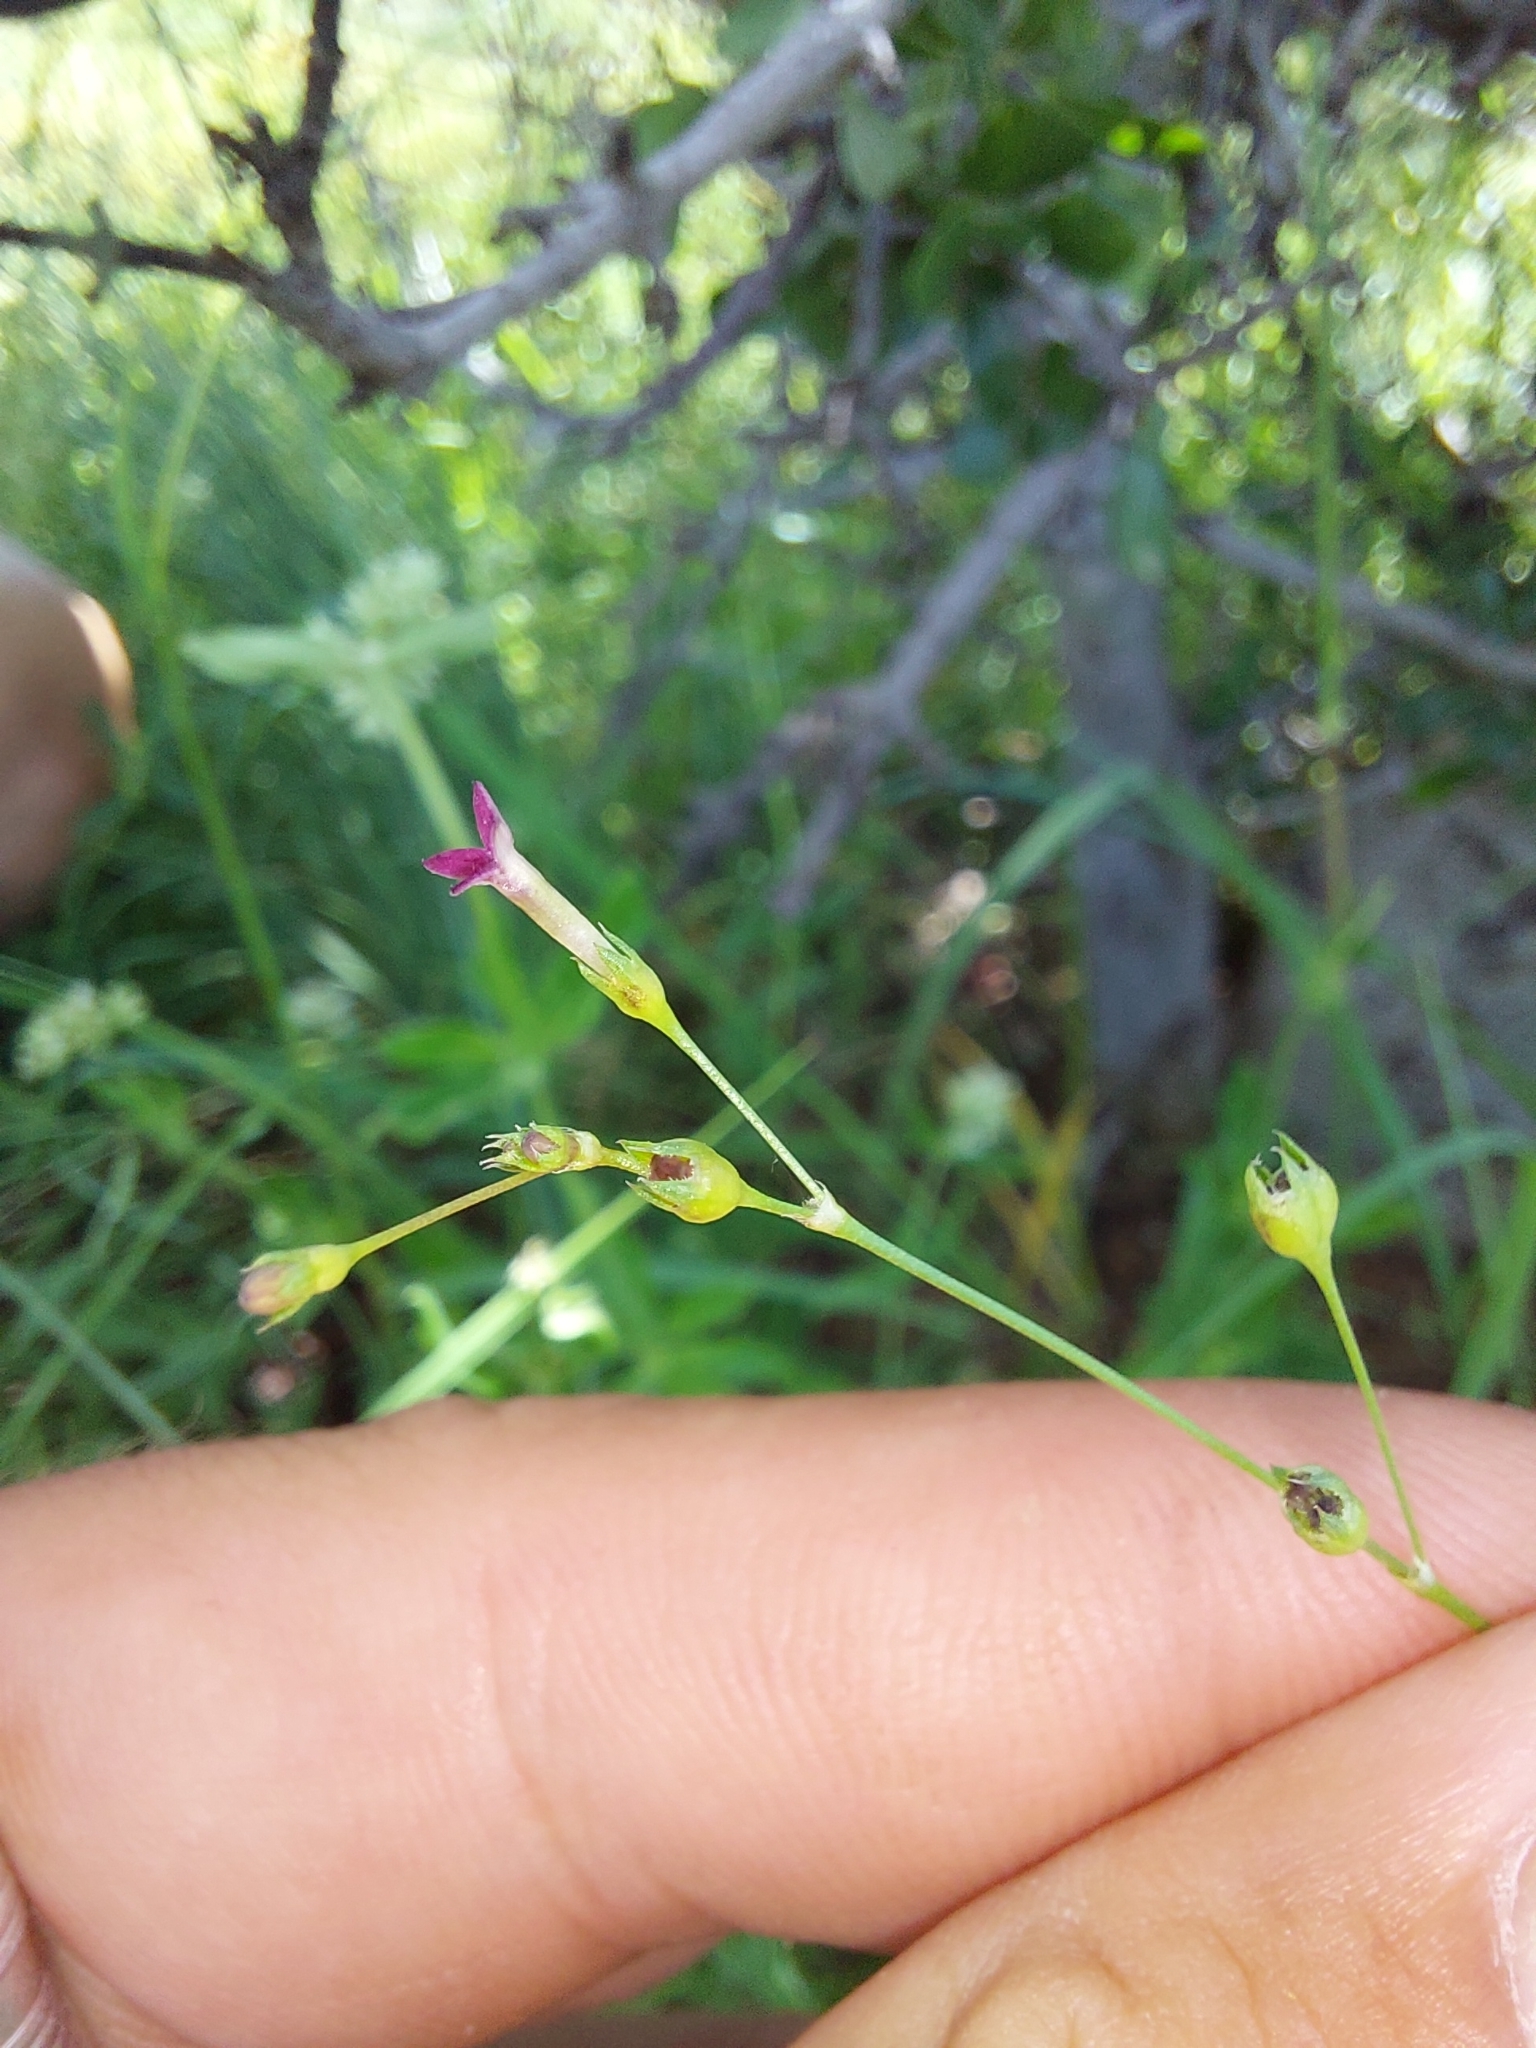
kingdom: Plantae
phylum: Tracheophyta
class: Magnoliopsida
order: Gentianales
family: Rubiaceae
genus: Cordylostigma
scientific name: Cordylostigma virgatum
